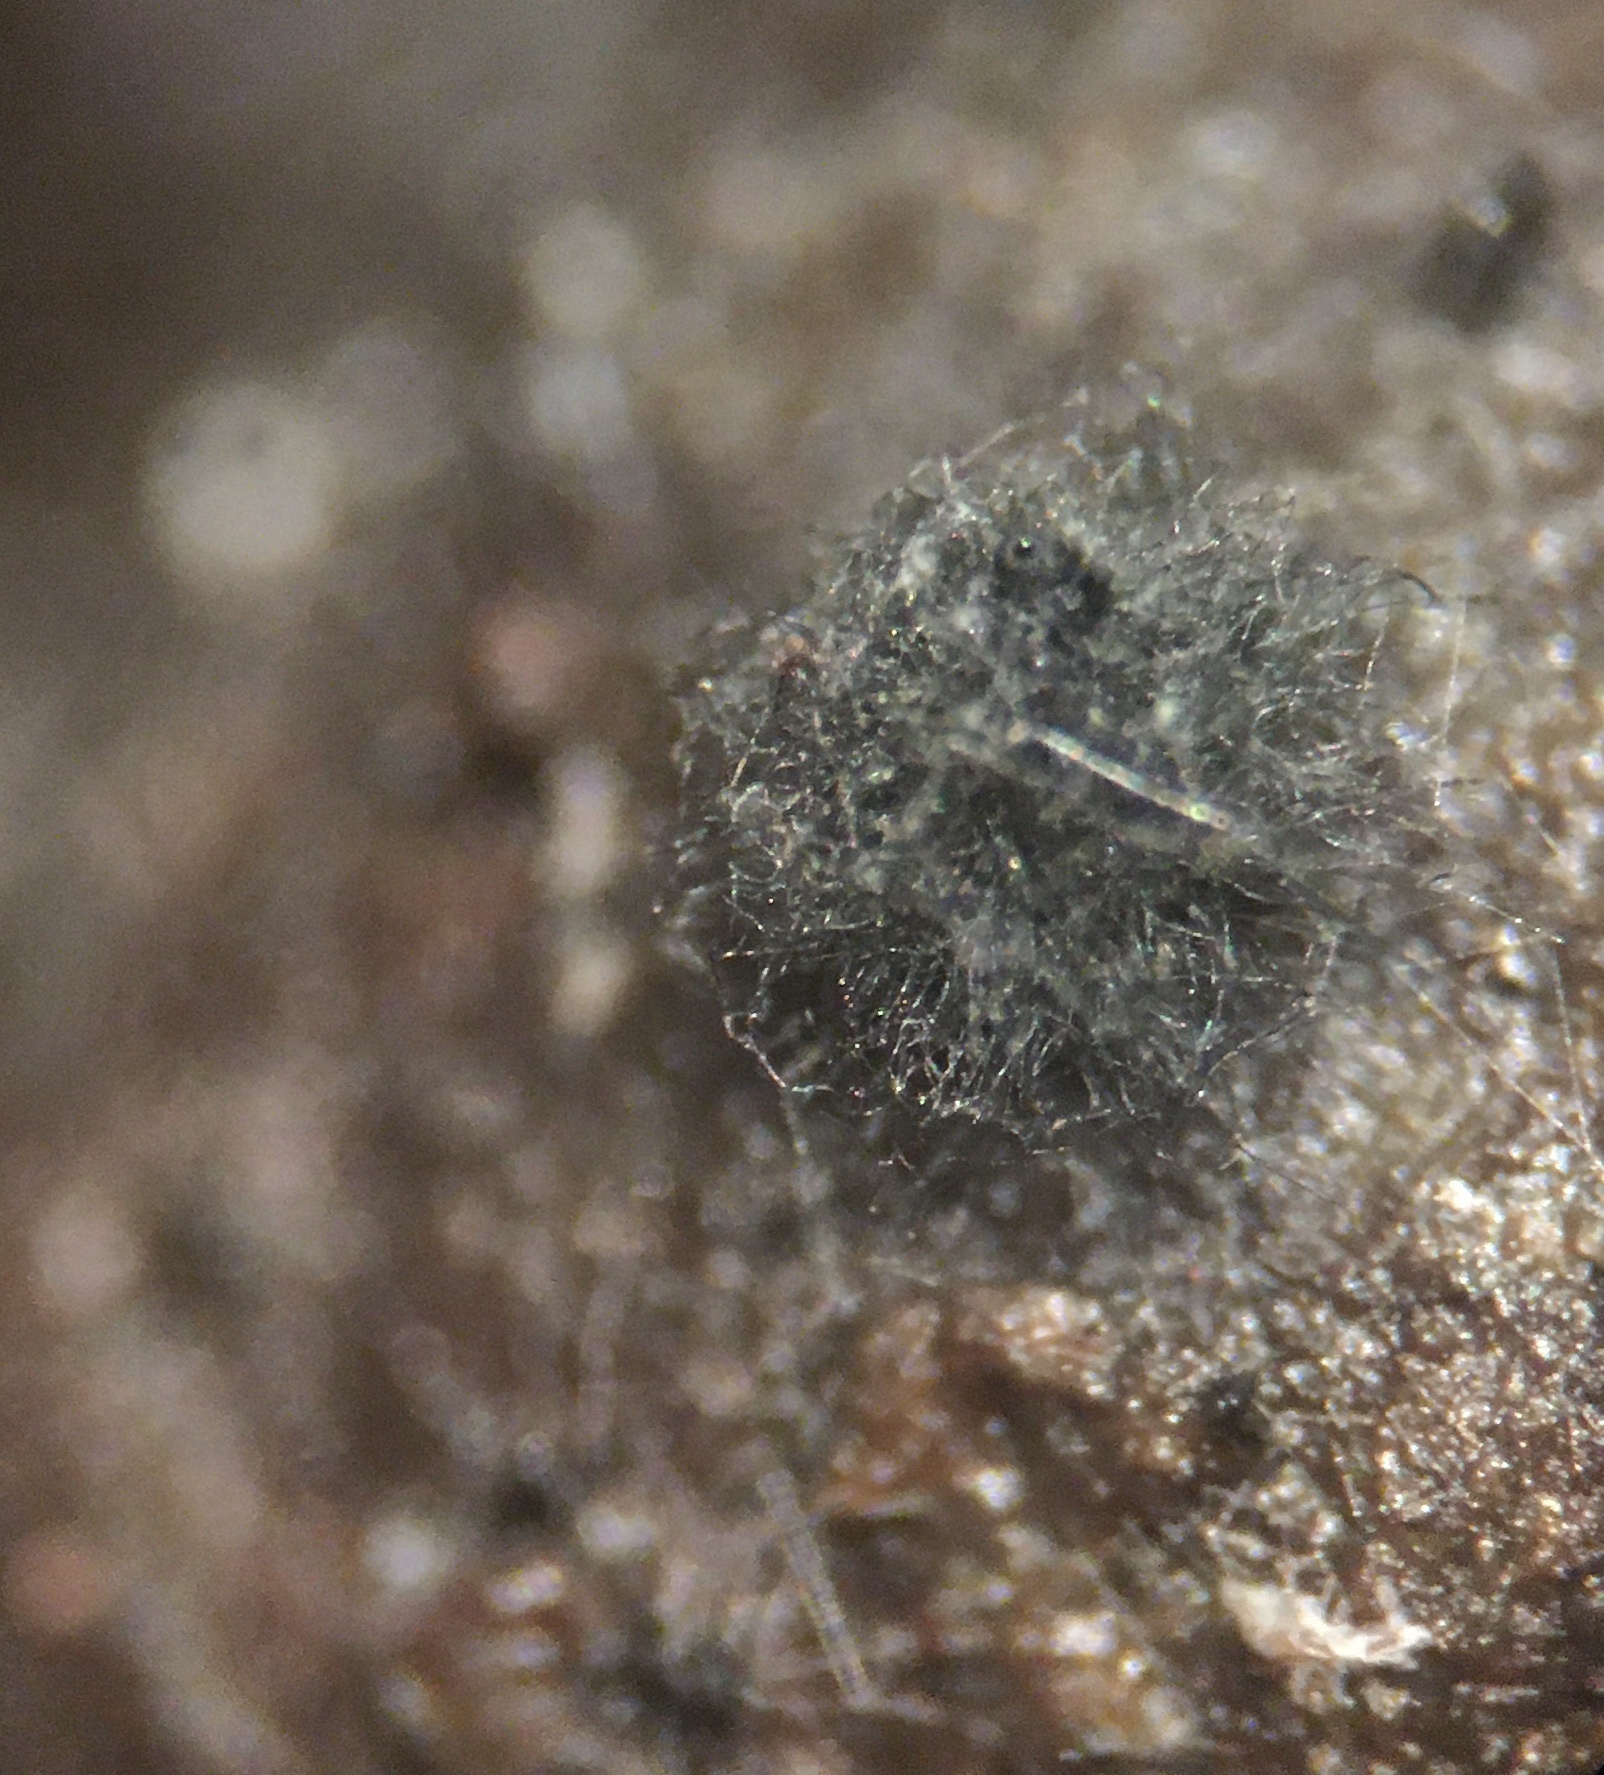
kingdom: Fungi
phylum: Ascomycota
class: Sordariomycetes
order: Sordariales
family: Lasiosphaeriaceae
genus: Arnium
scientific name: Arnium cirriferum
